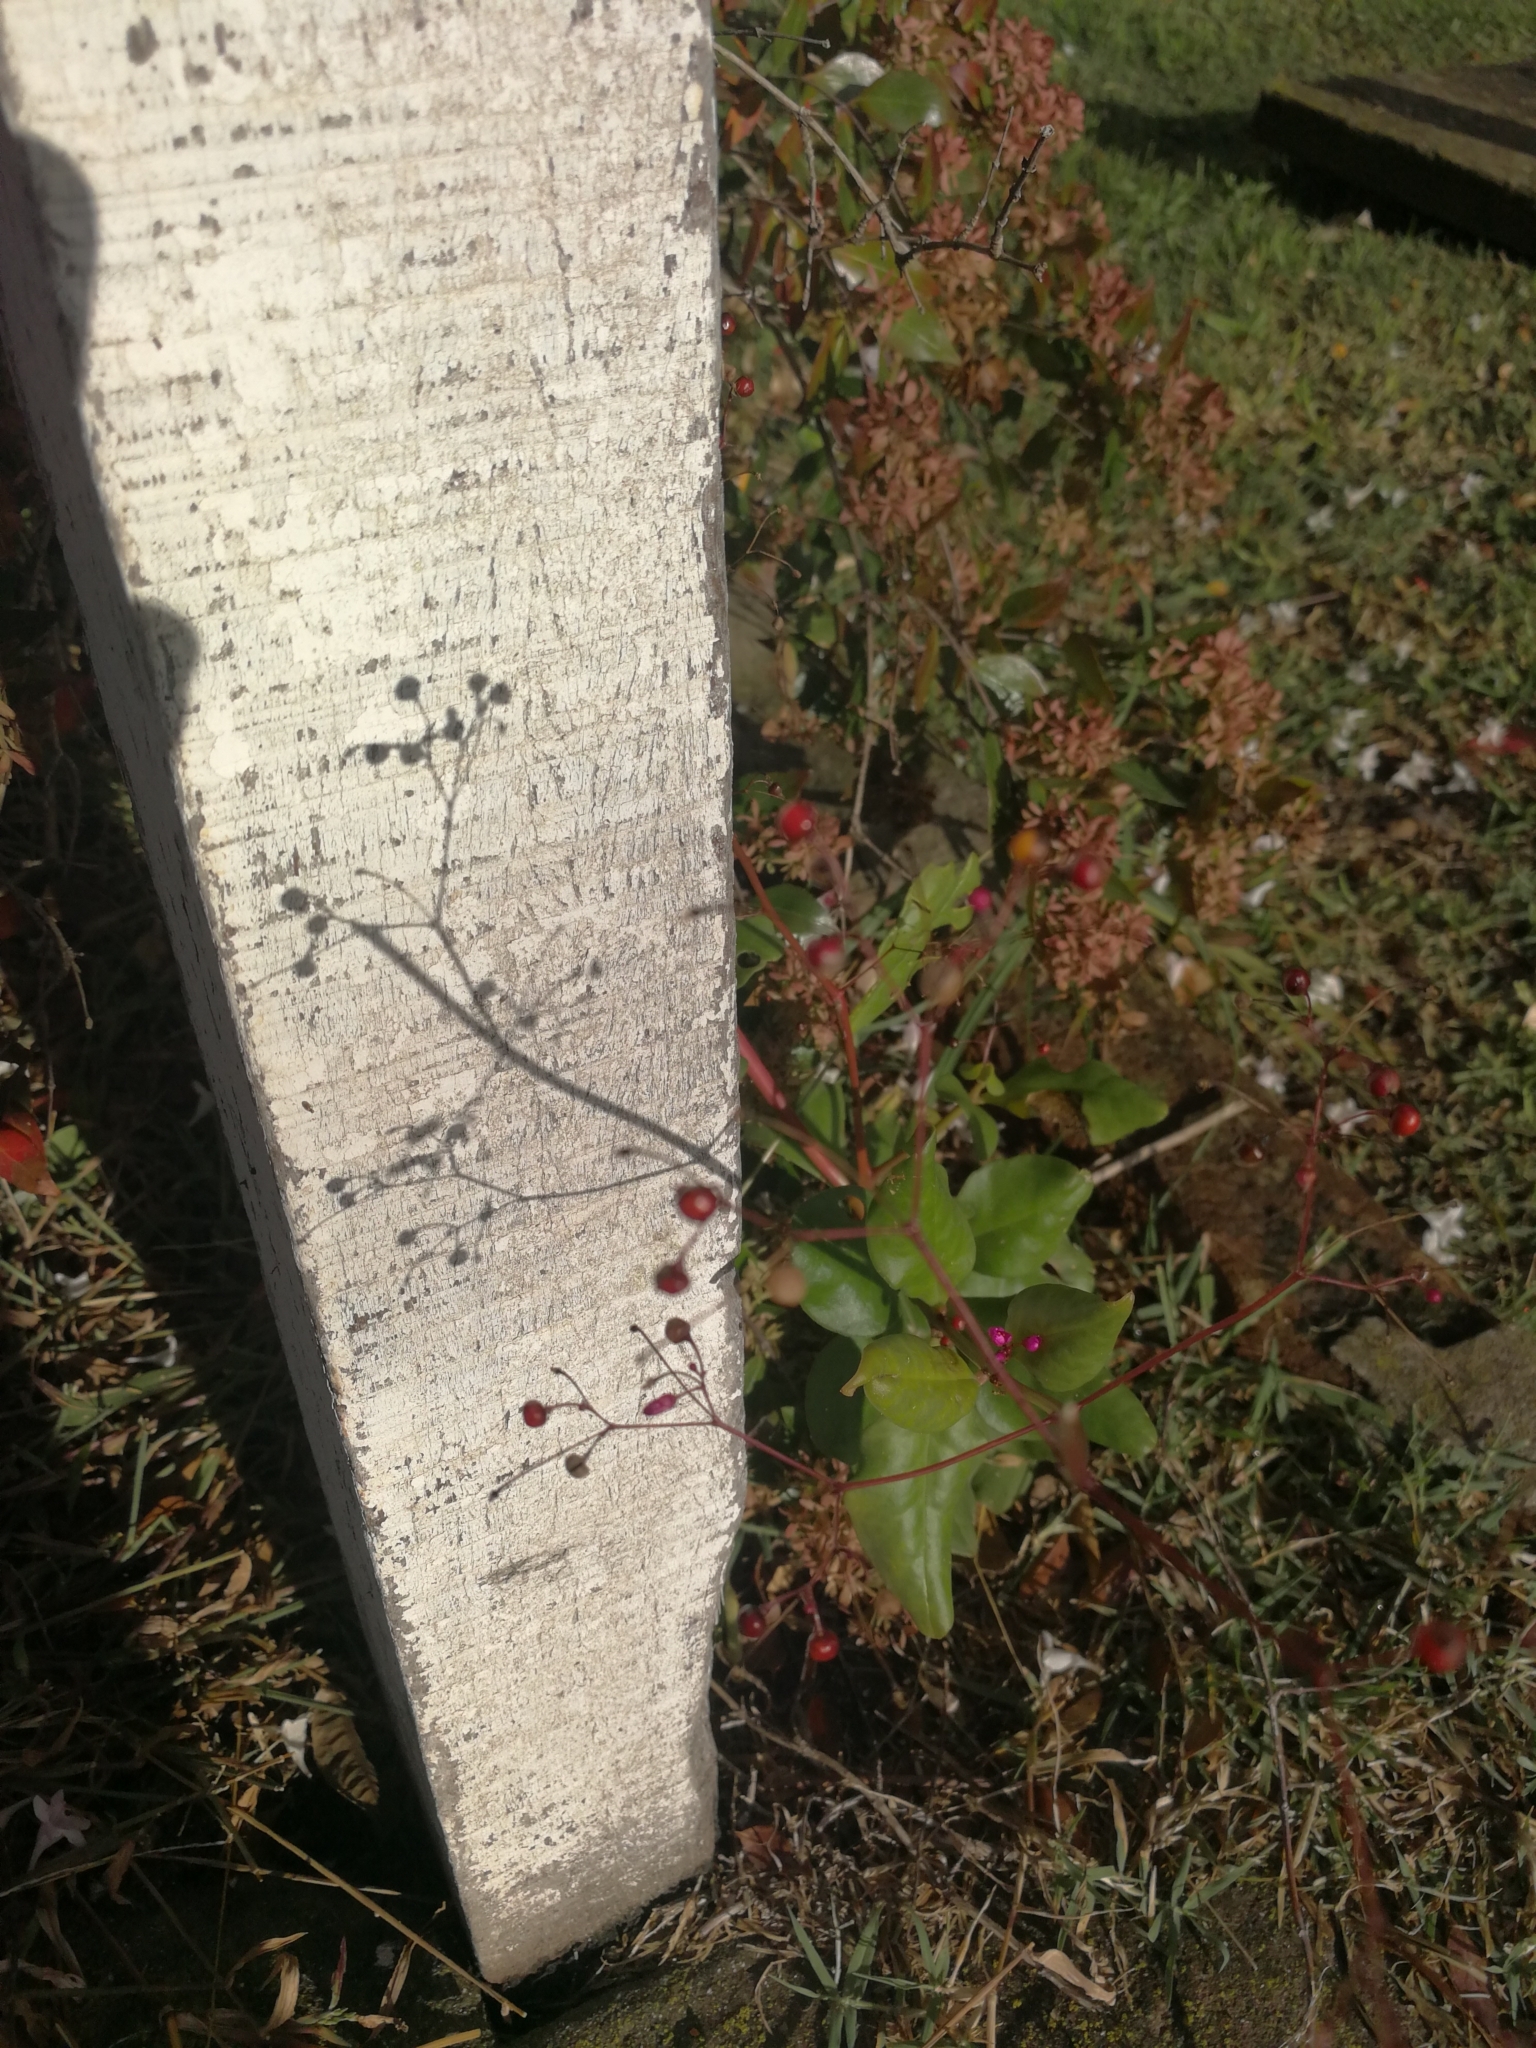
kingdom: Plantae
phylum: Tracheophyta
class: Magnoliopsida
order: Caryophyllales
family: Talinaceae
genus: Talinum
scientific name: Talinum paniculatum
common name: Jewels of opar
